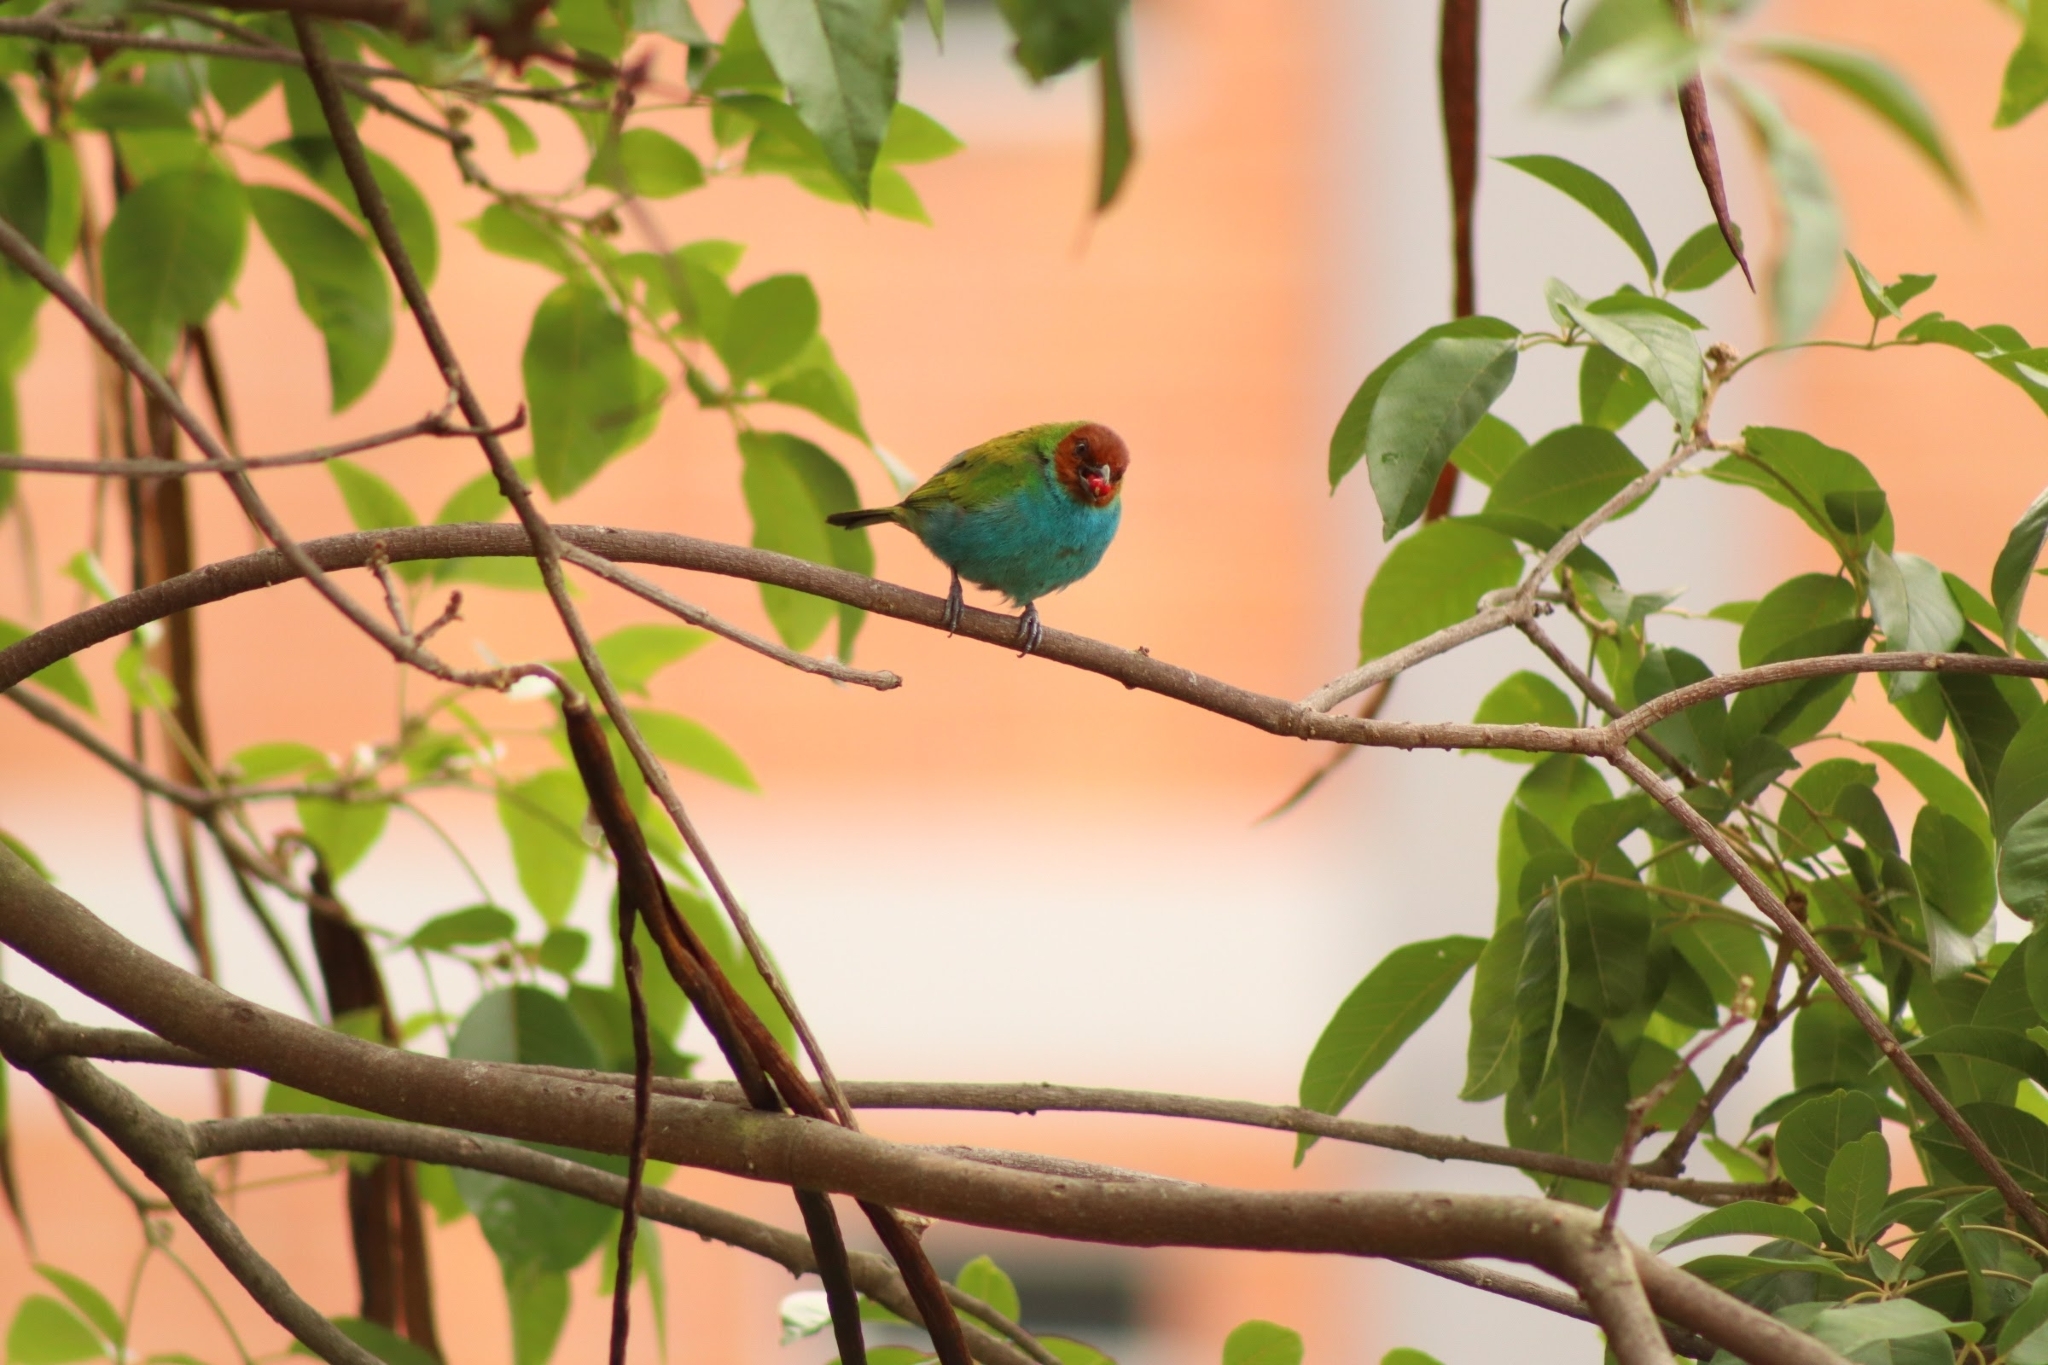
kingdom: Animalia
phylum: Chordata
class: Aves
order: Passeriformes
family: Thraupidae
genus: Tangara
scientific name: Tangara gyrola
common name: Bay-headed tanager
